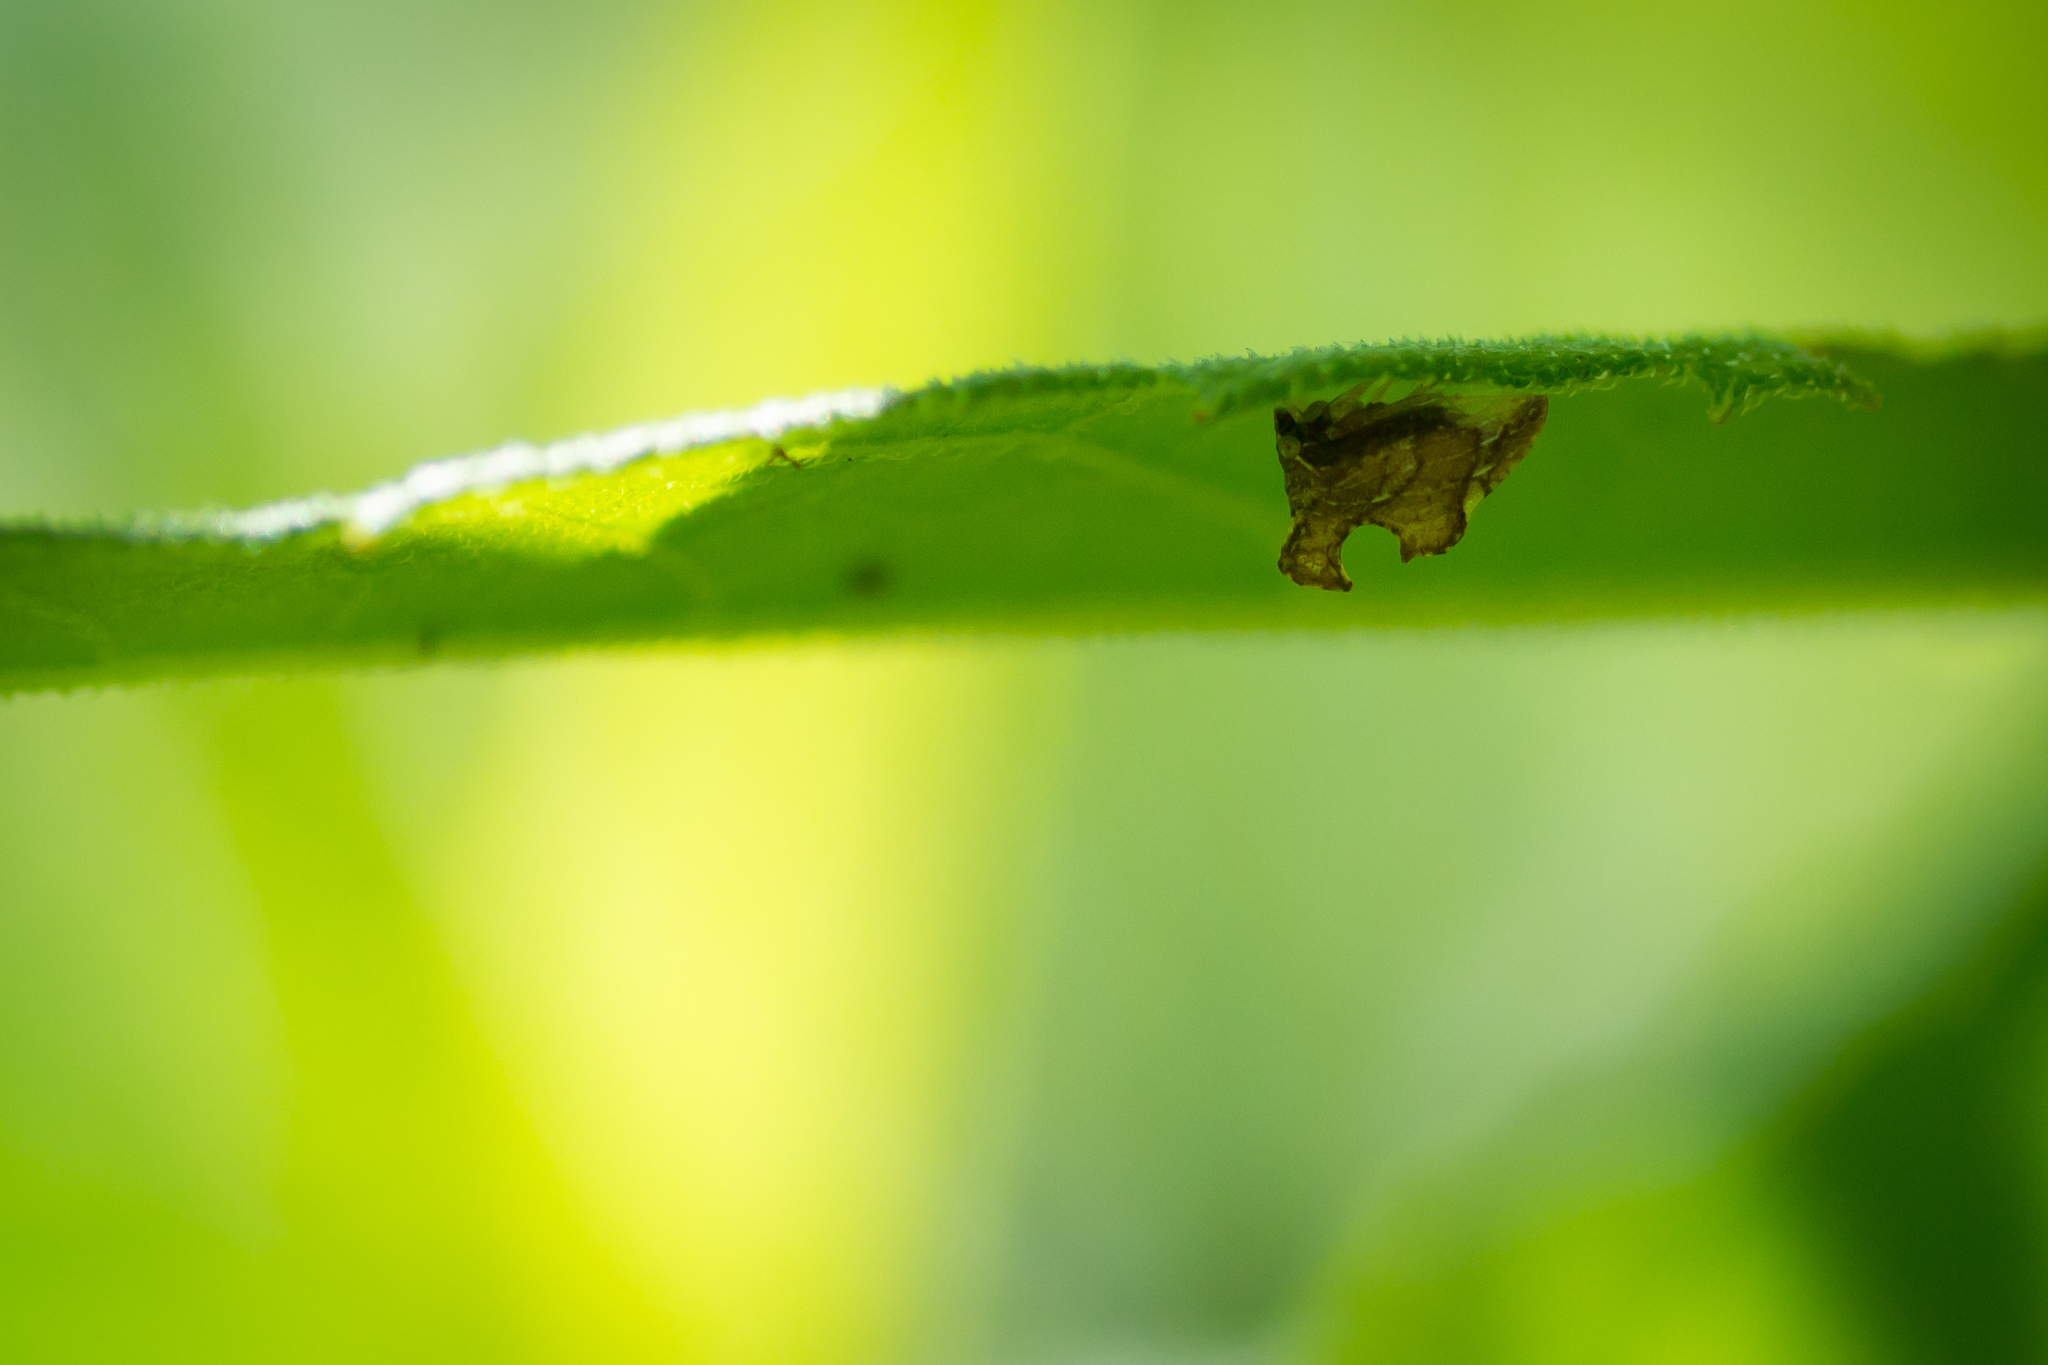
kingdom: Animalia
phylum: Arthropoda
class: Insecta
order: Hemiptera
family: Membracidae
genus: Entylia
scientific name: Entylia carinata
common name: Keeled treehopper
